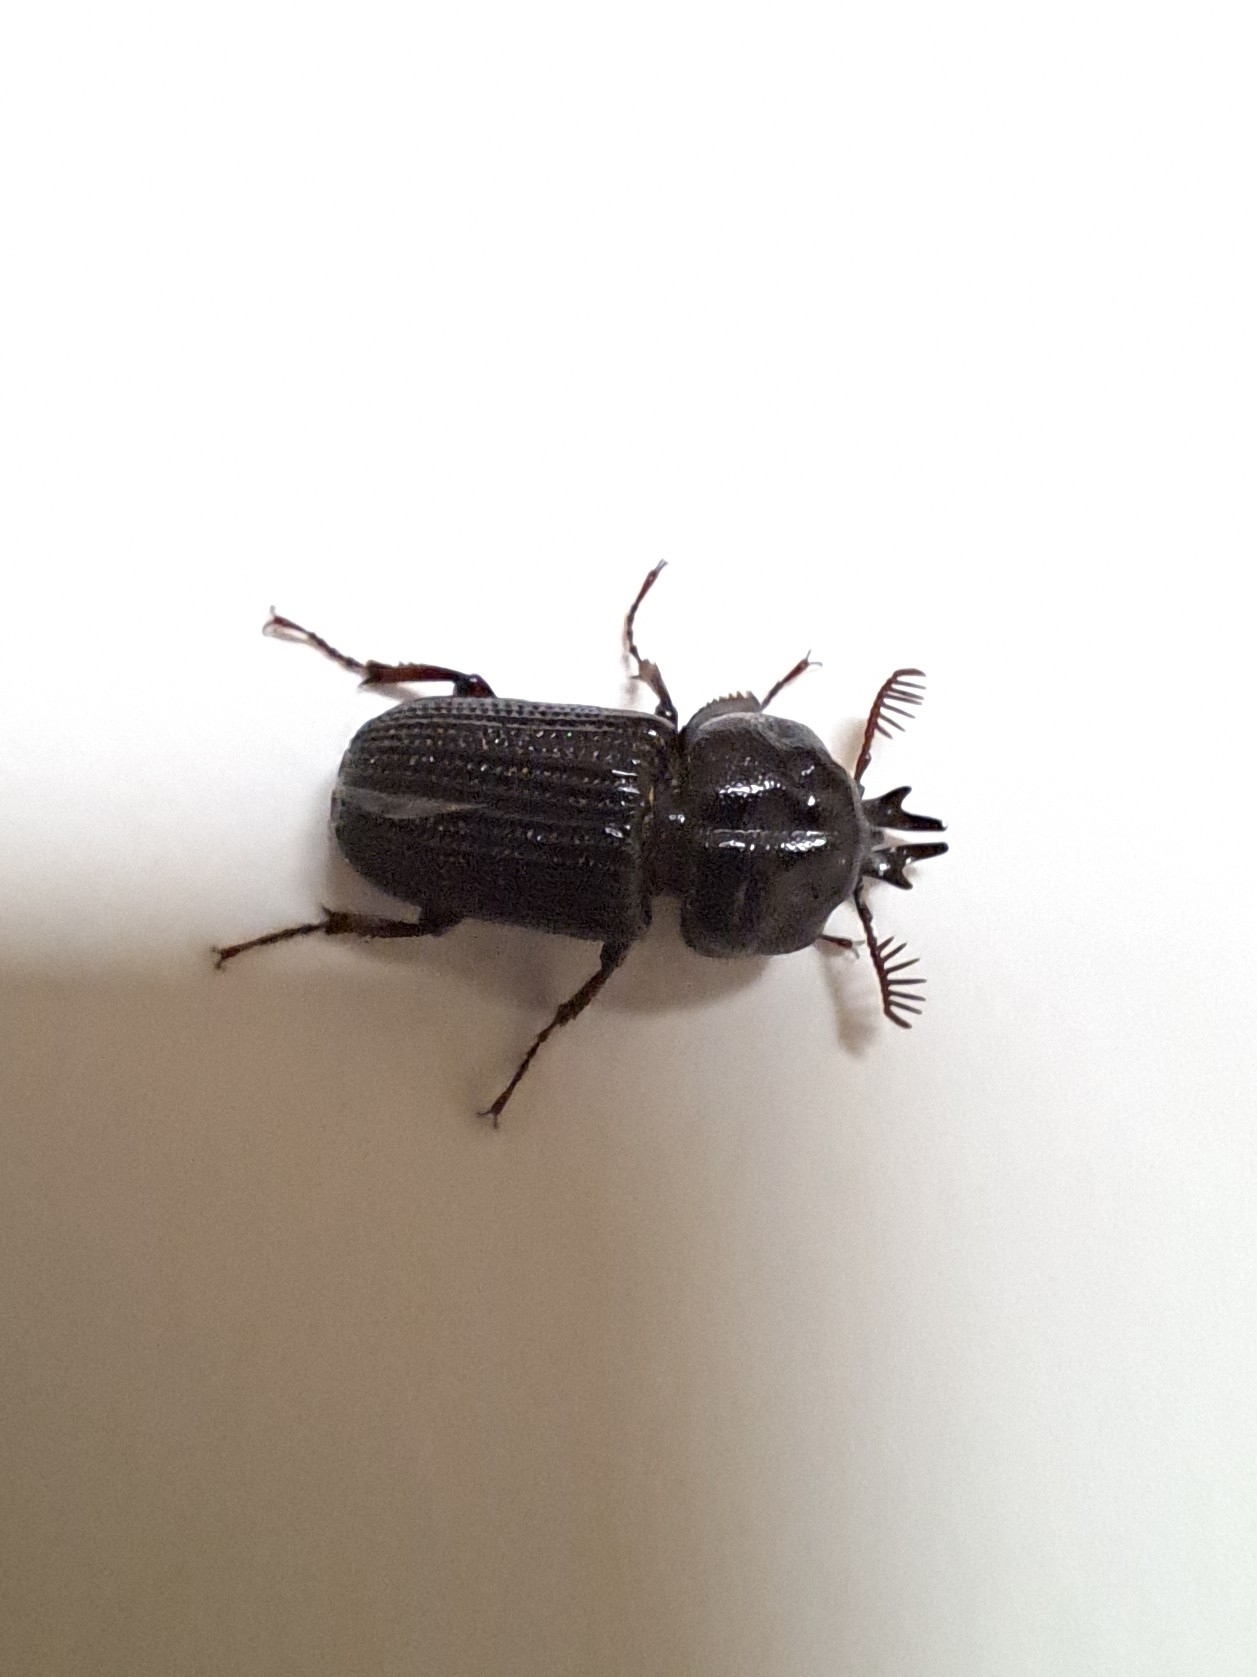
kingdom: Animalia
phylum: Arthropoda
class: Insecta
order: Coleoptera
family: Lucanidae
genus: Syndesus
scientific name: Syndesus cornutus
